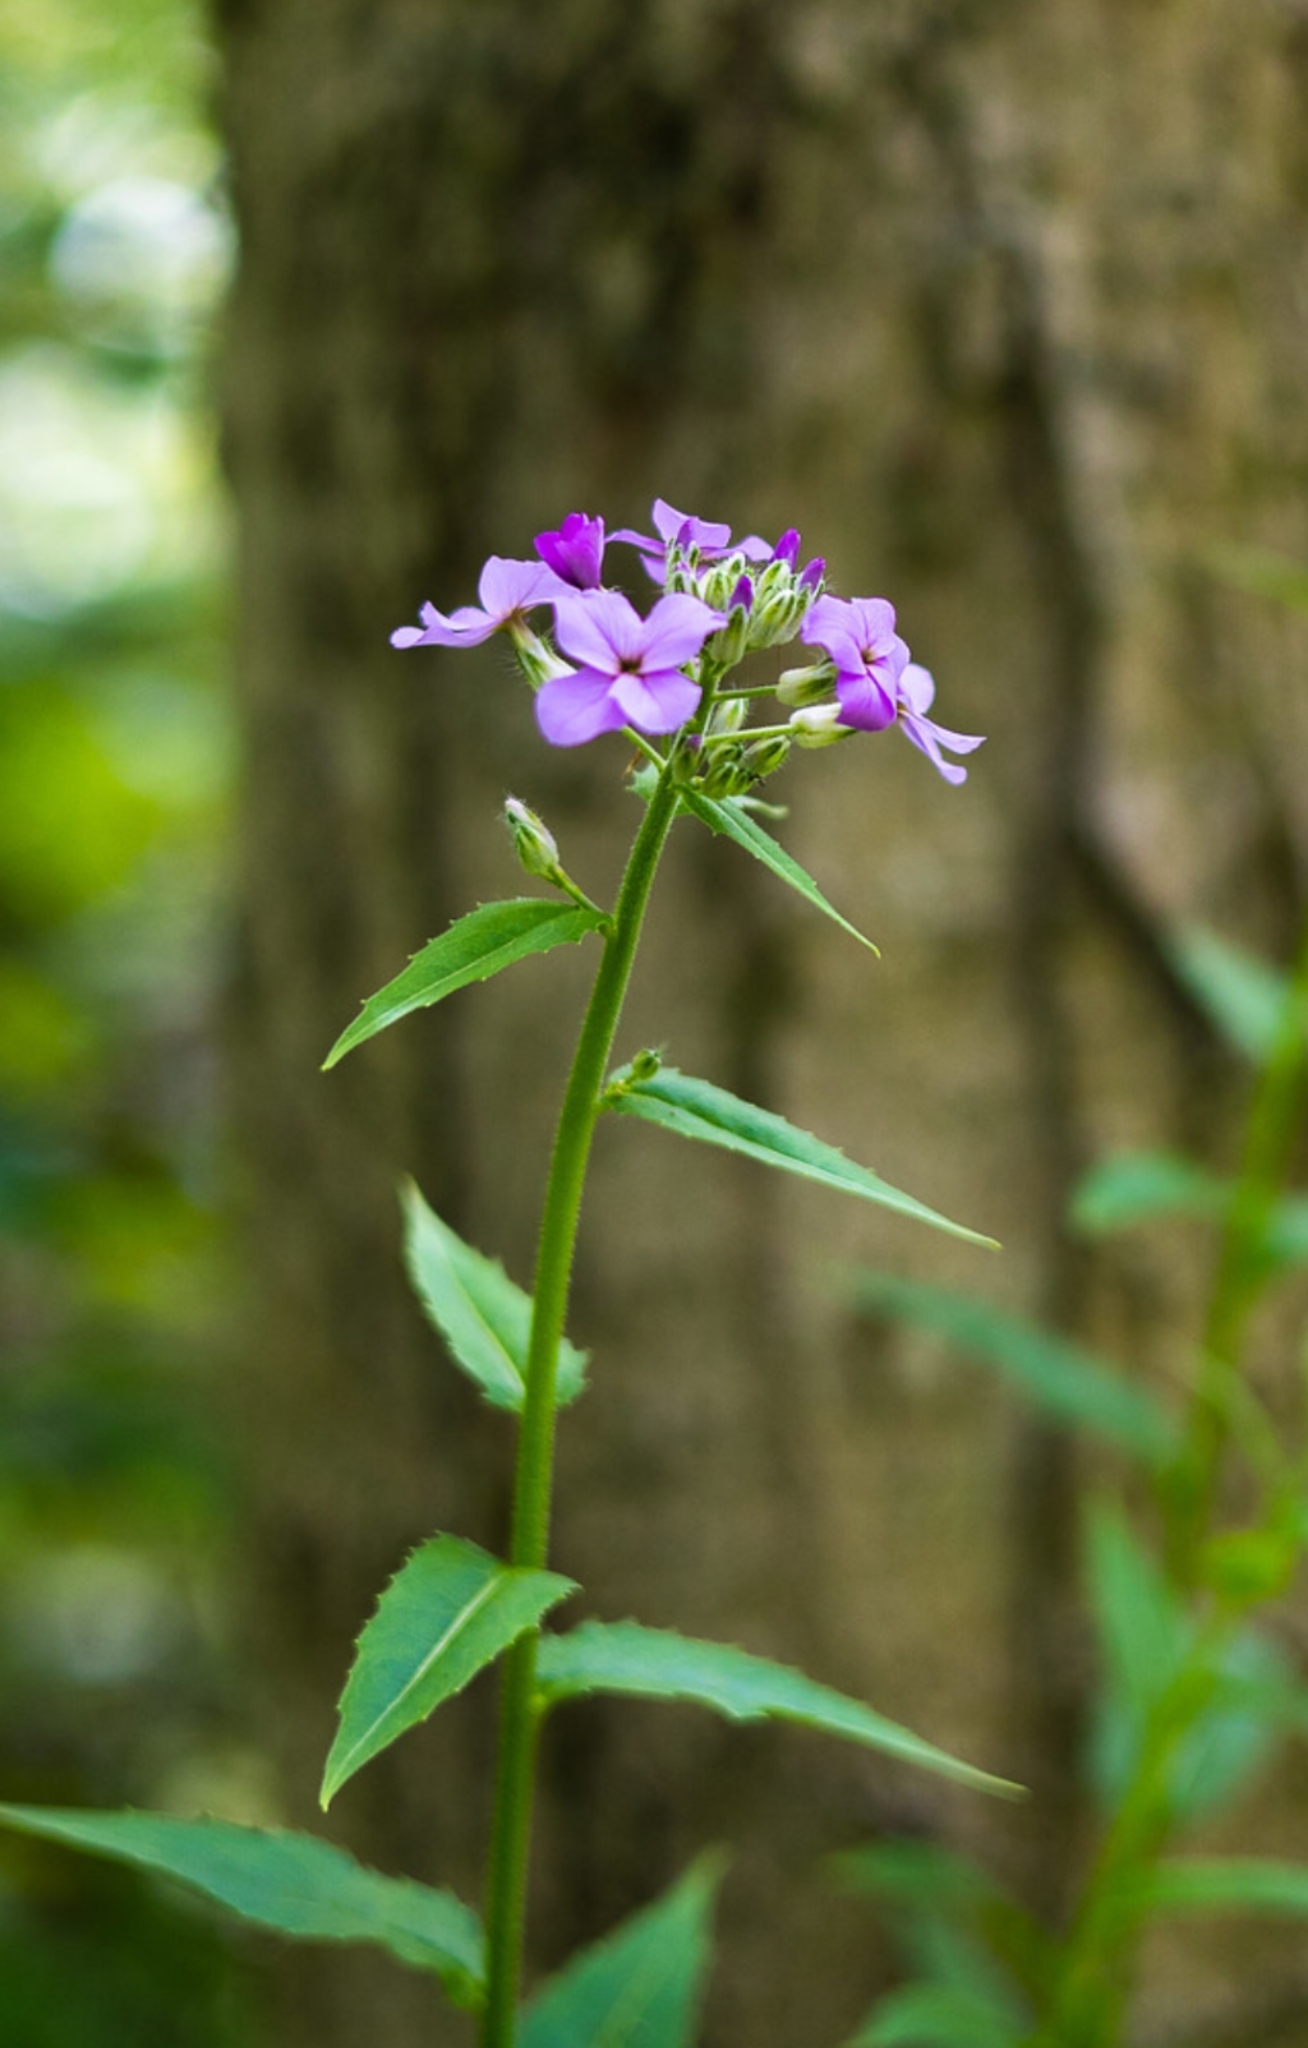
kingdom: Plantae
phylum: Tracheophyta
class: Magnoliopsida
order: Brassicales
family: Brassicaceae
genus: Hesperis
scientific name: Hesperis matronalis
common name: Dame's-violet
